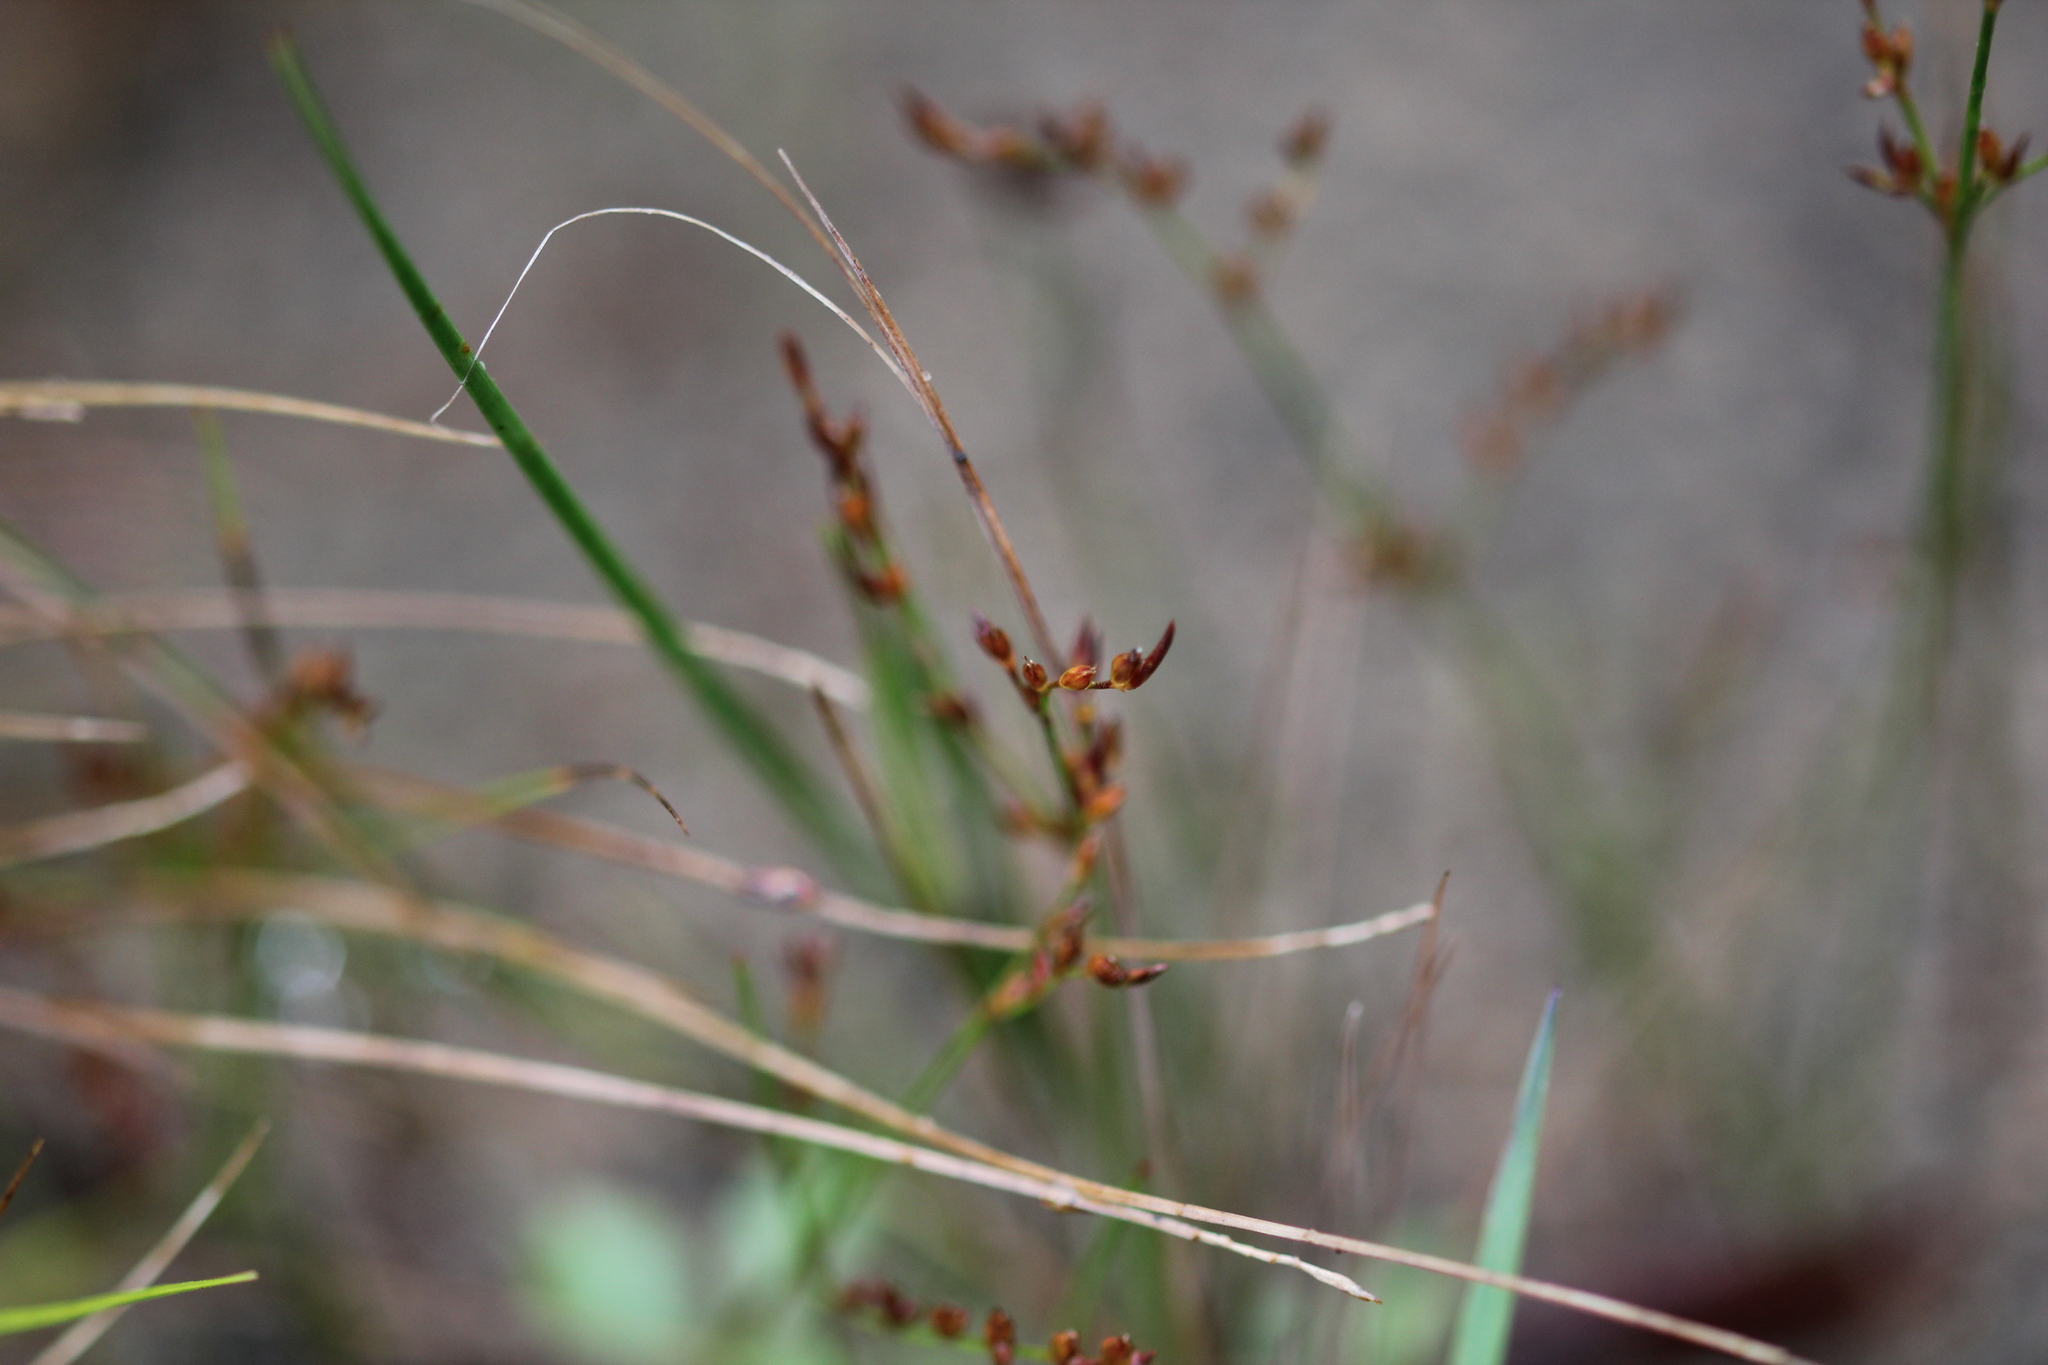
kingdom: Plantae
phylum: Tracheophyta
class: Liliopsida
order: Poales
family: Juncaceae
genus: Juncus
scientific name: Juncus pelocarpus
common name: Brown-fruited rush
